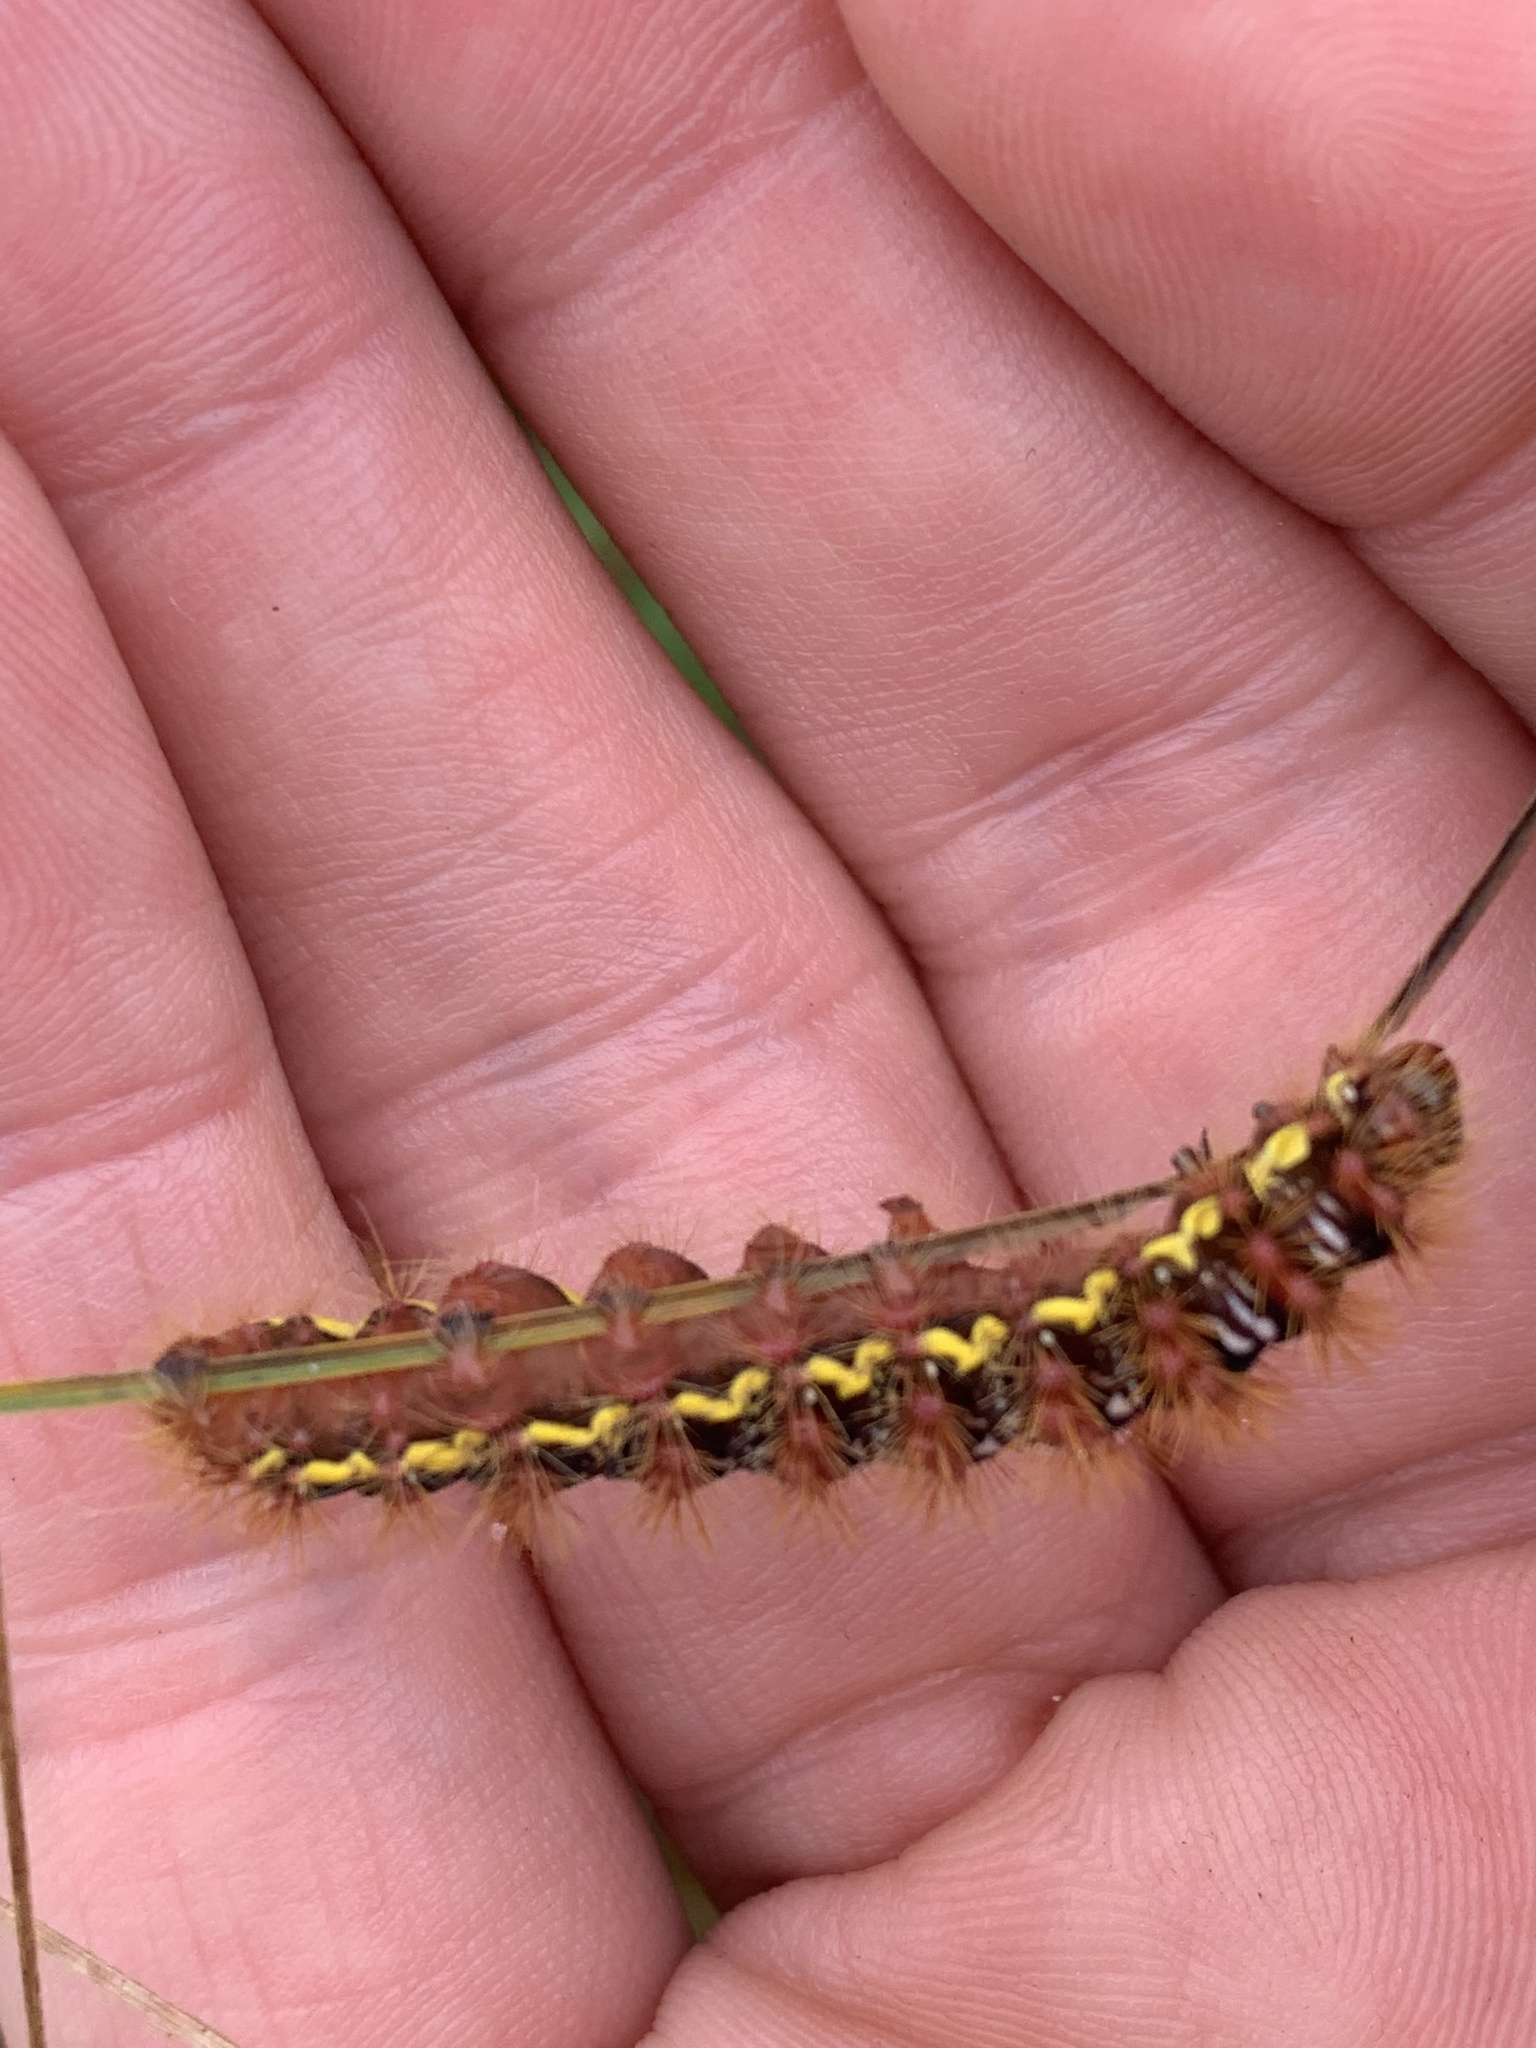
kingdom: Animalia
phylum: Arthropoda
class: Insecta
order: Lepidoptera
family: Noctuidae
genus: Acronicta
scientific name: Acronicta oblinita
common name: Smeared dagger
